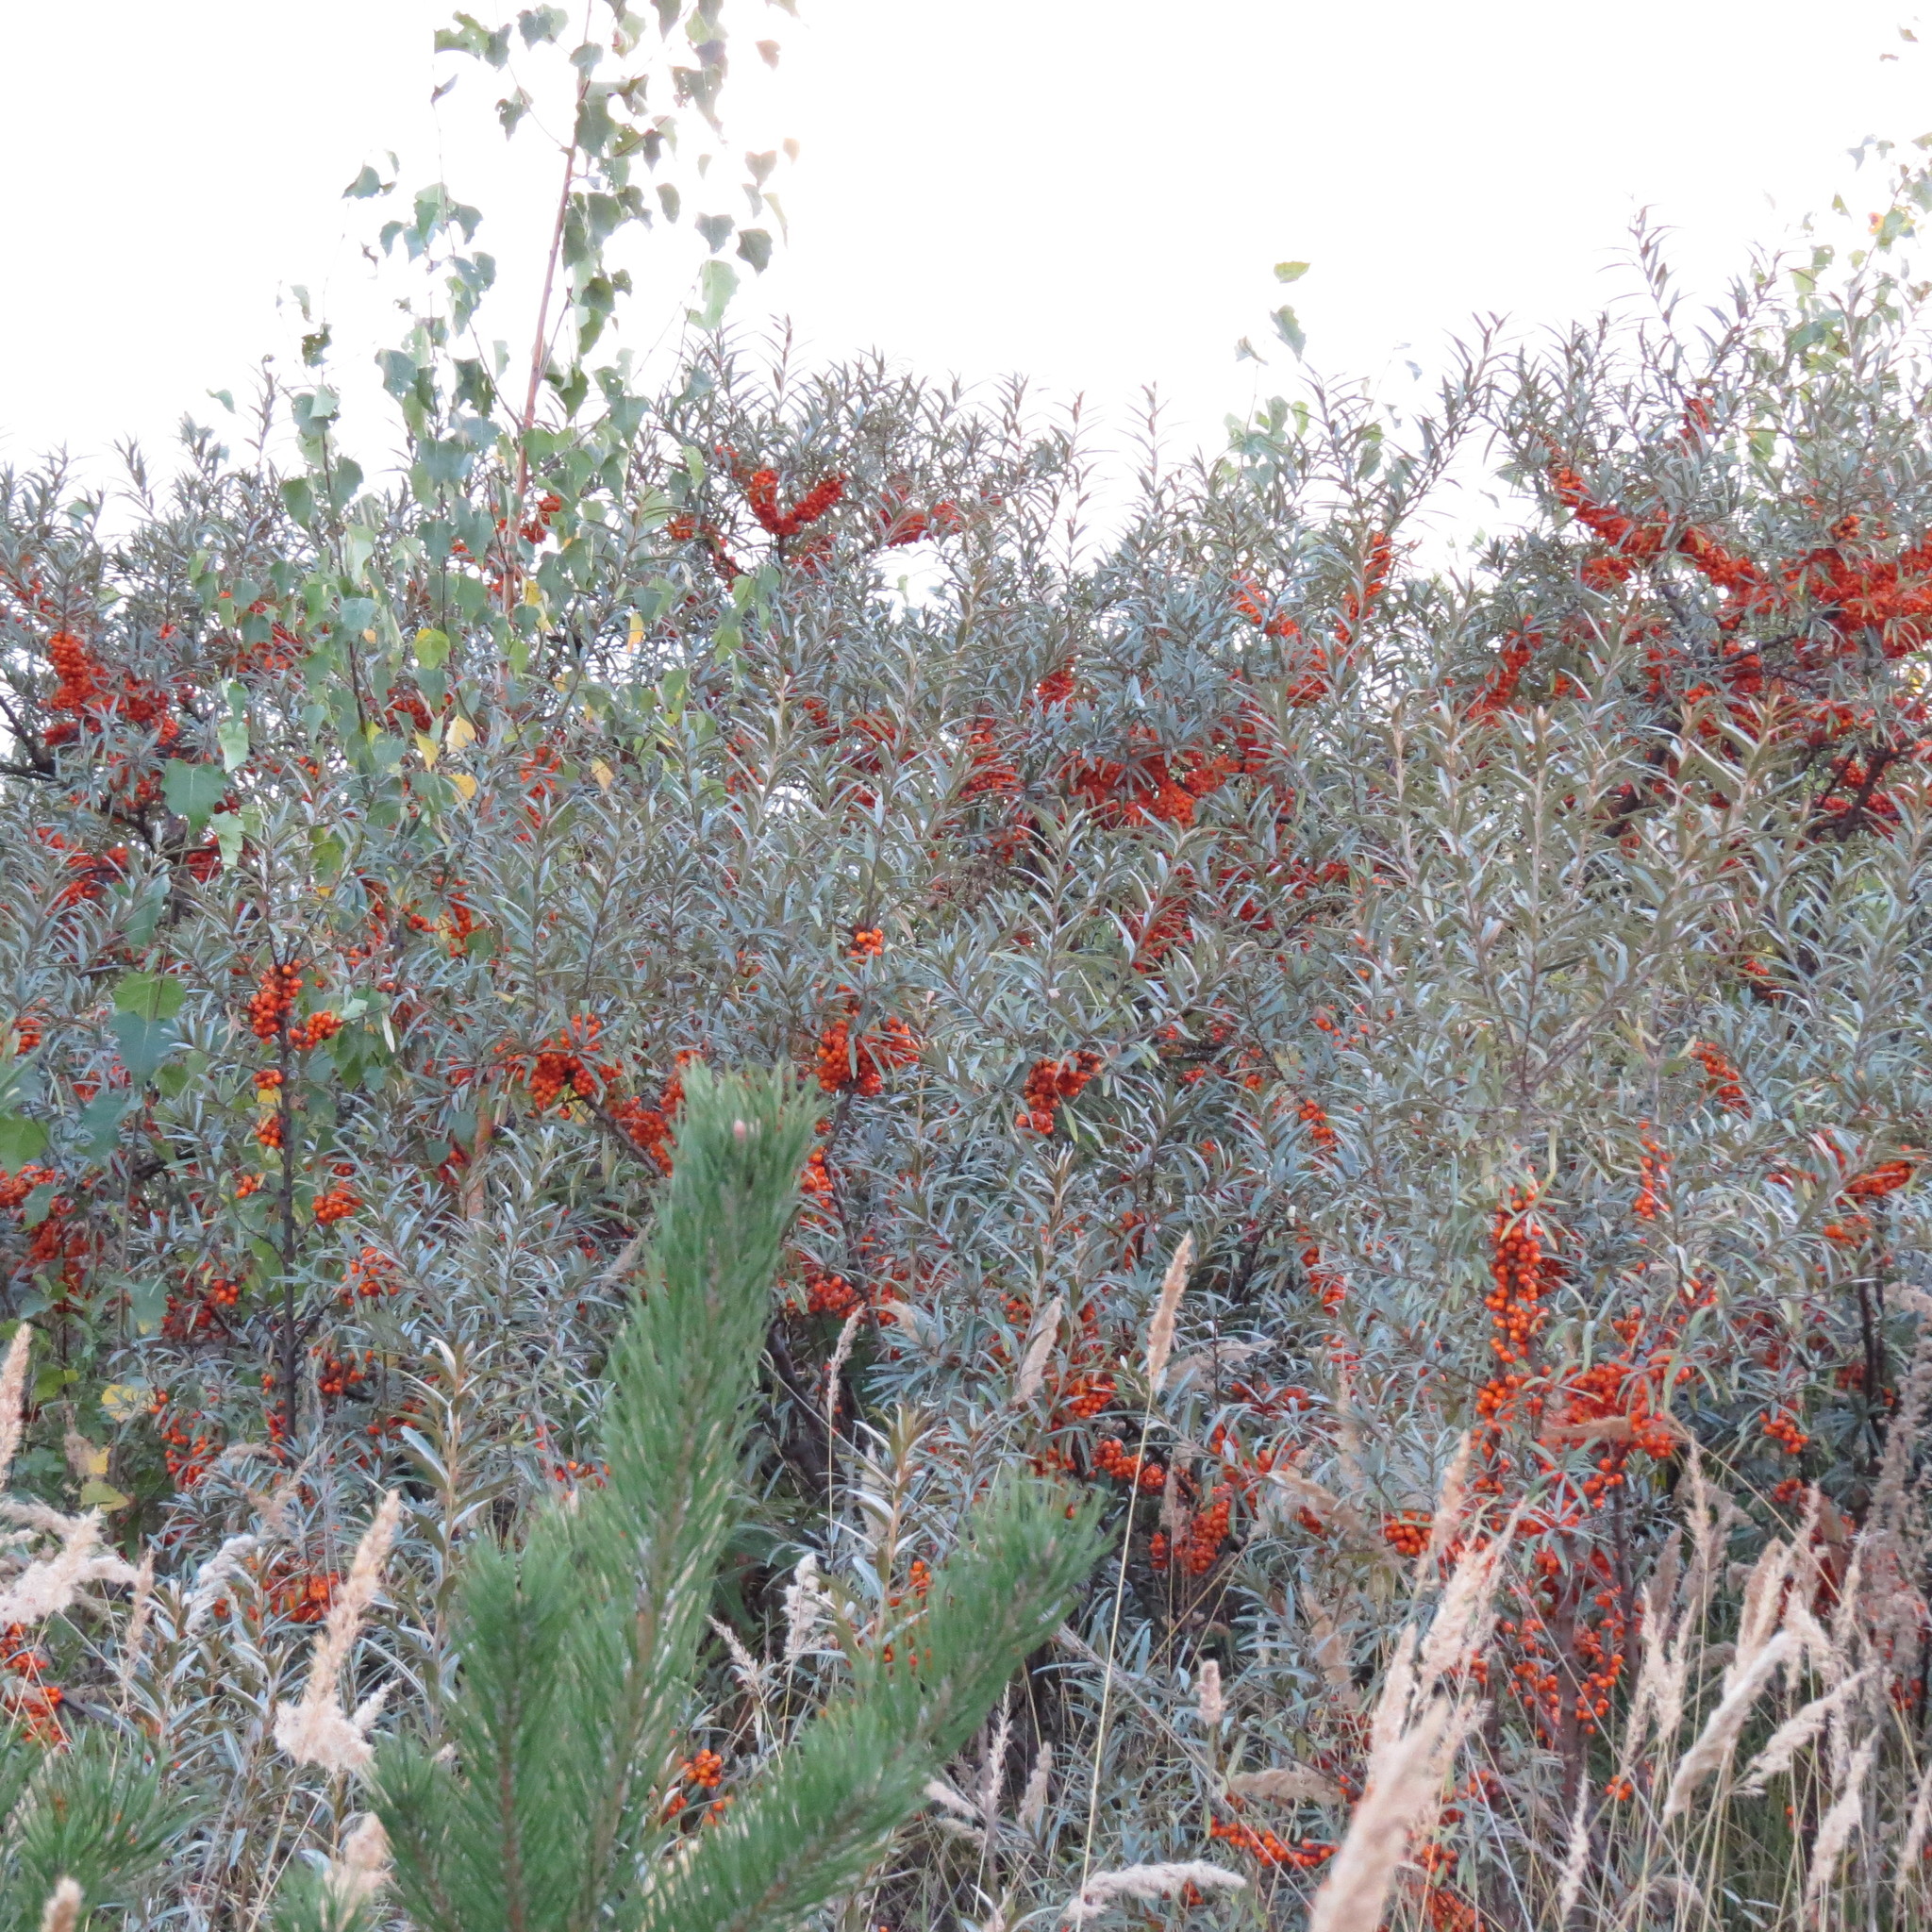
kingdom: Plantae
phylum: Tracheophyta
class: Magnoliopsida
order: Rosales
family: Elaeagnaceae
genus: Hippophae
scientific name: Hippophae rhamnoides
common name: Sea-buckthorn
